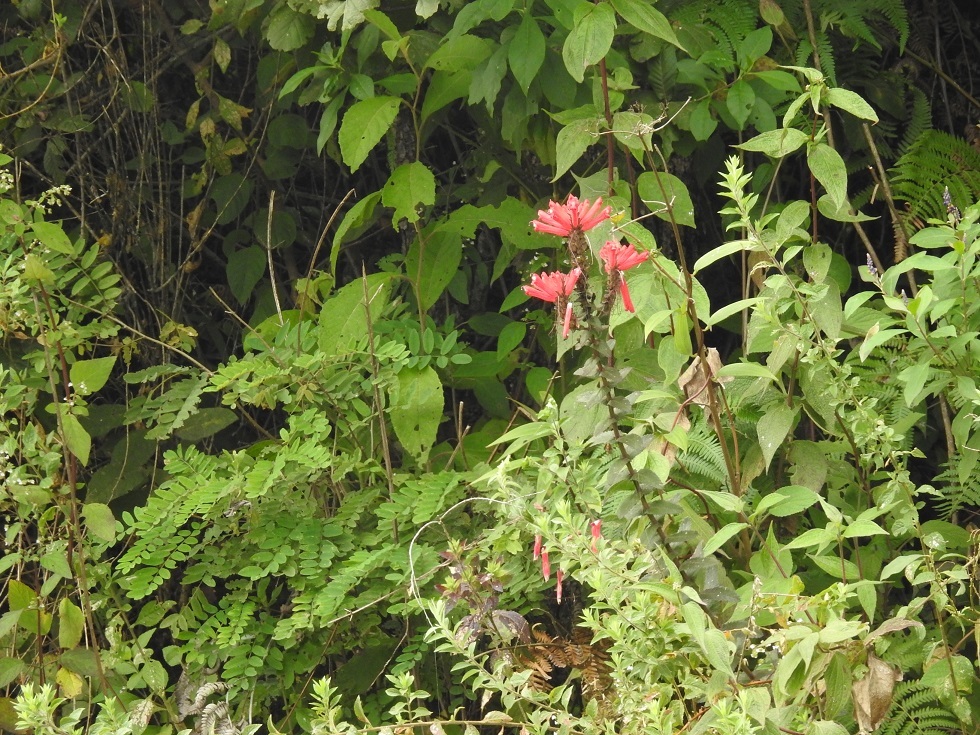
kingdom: Plantae
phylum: Tracheophyta
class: Magnoliopsida
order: Lamiales
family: Orobanchaceae
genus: Lamourouxia
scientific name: Lamourouxia viscosa
